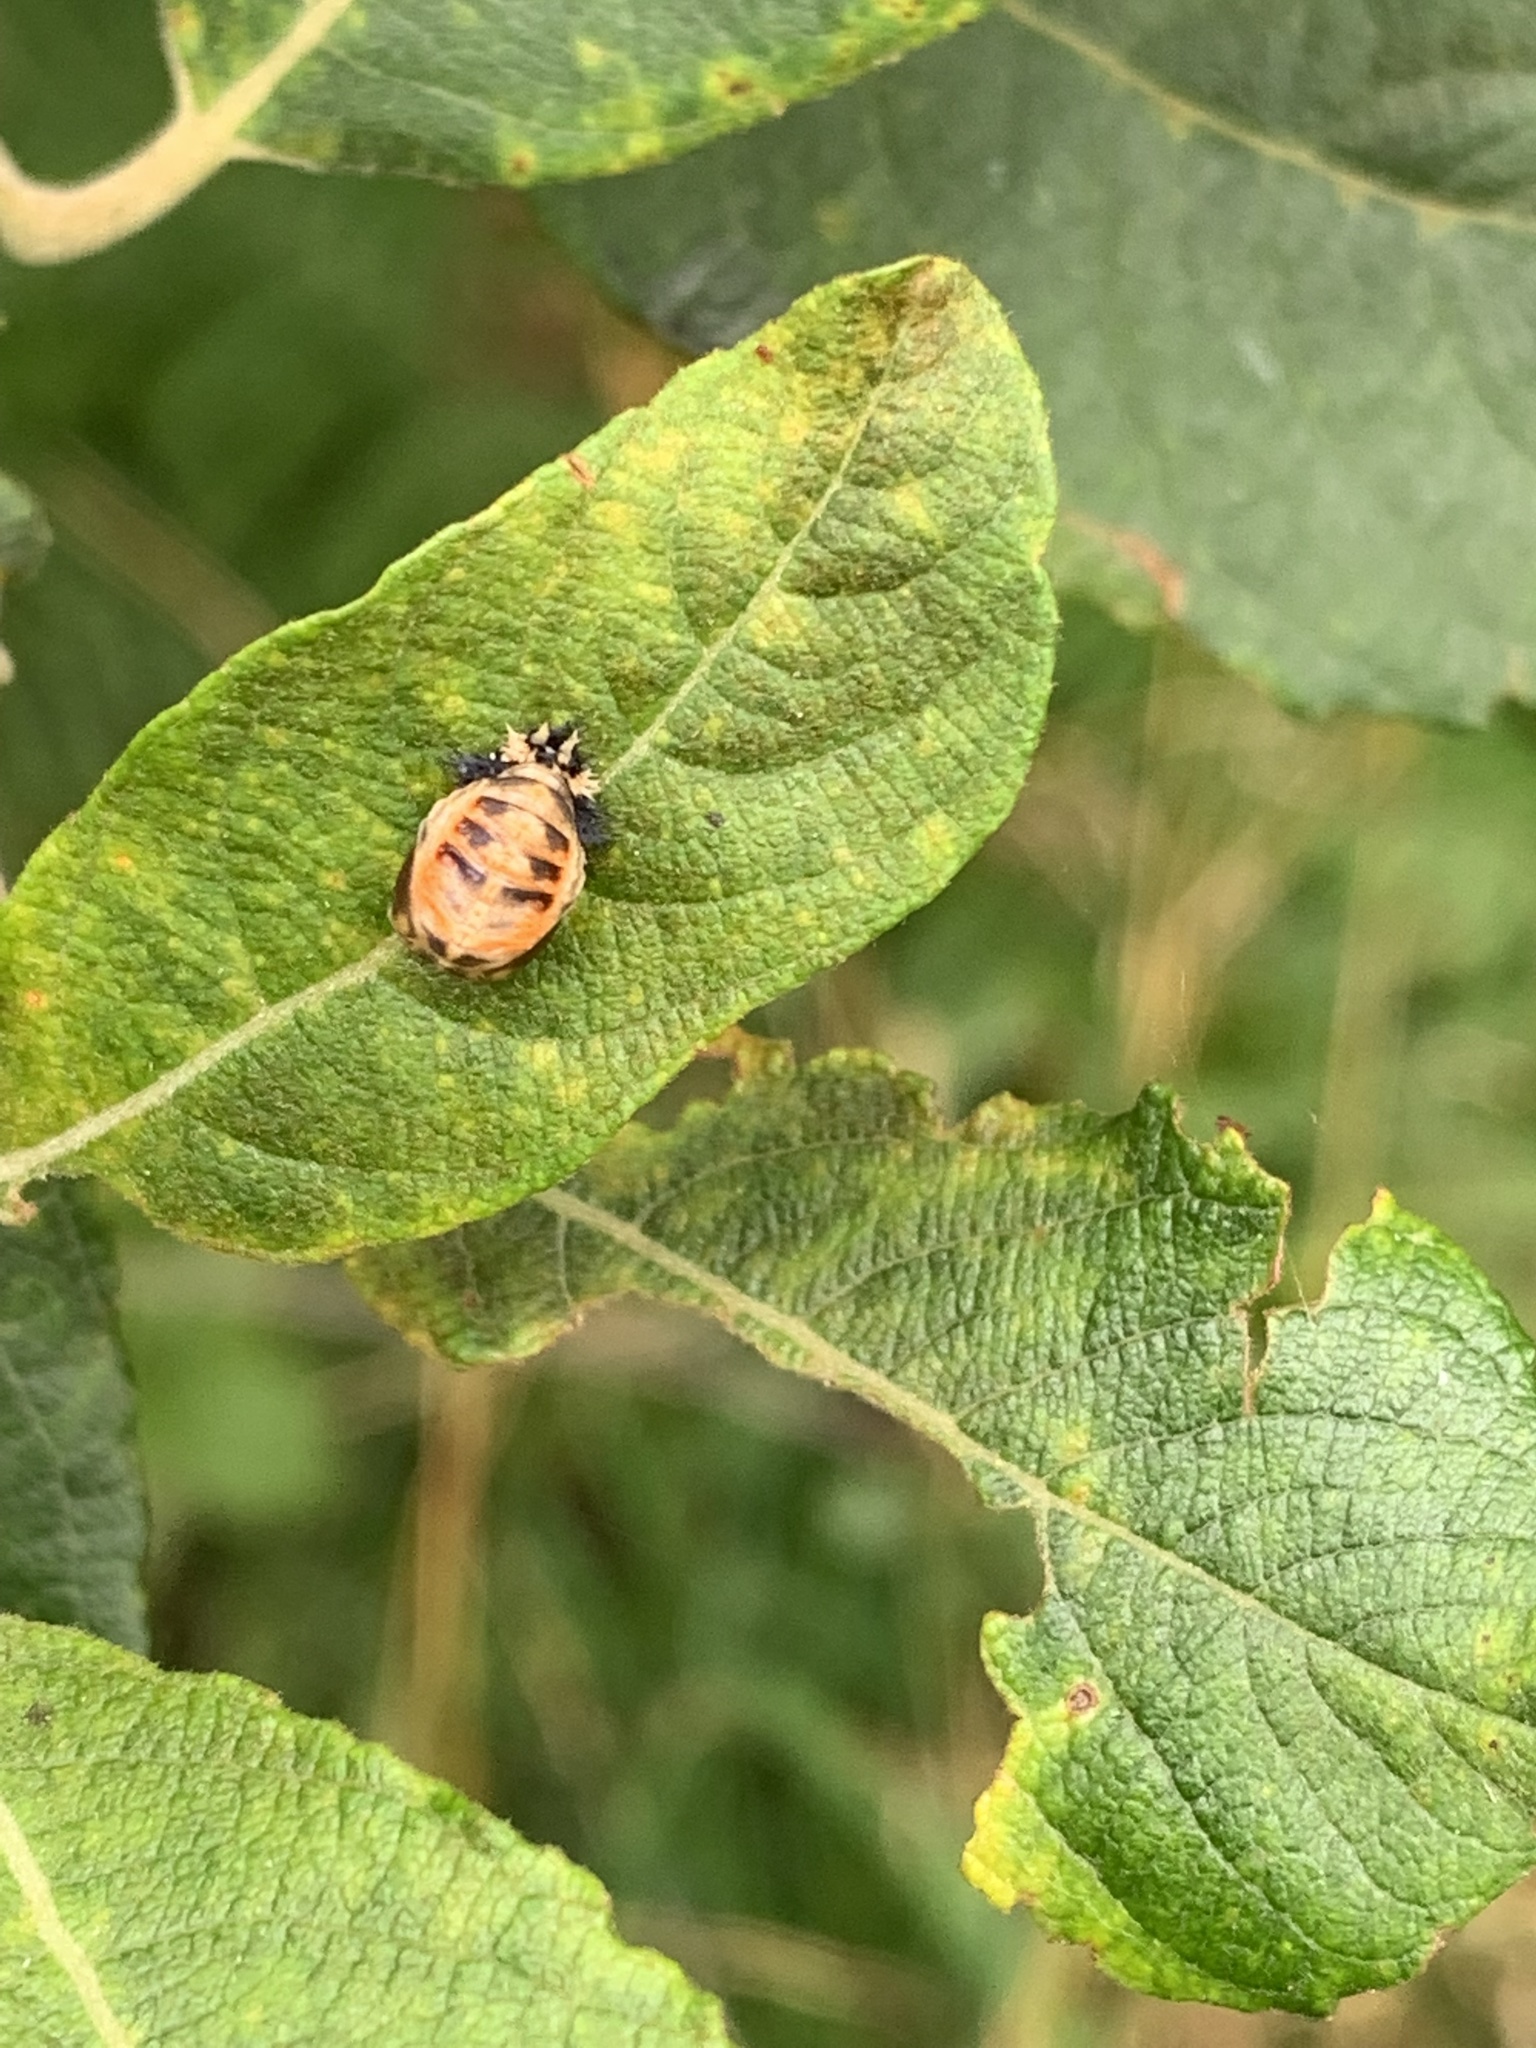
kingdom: Animalia
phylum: Arthropoda
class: Insecta
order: Coleoptera
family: Coccinellidae
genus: Harmonia
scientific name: Harmonia axyridis
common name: Harlequin ladybird
